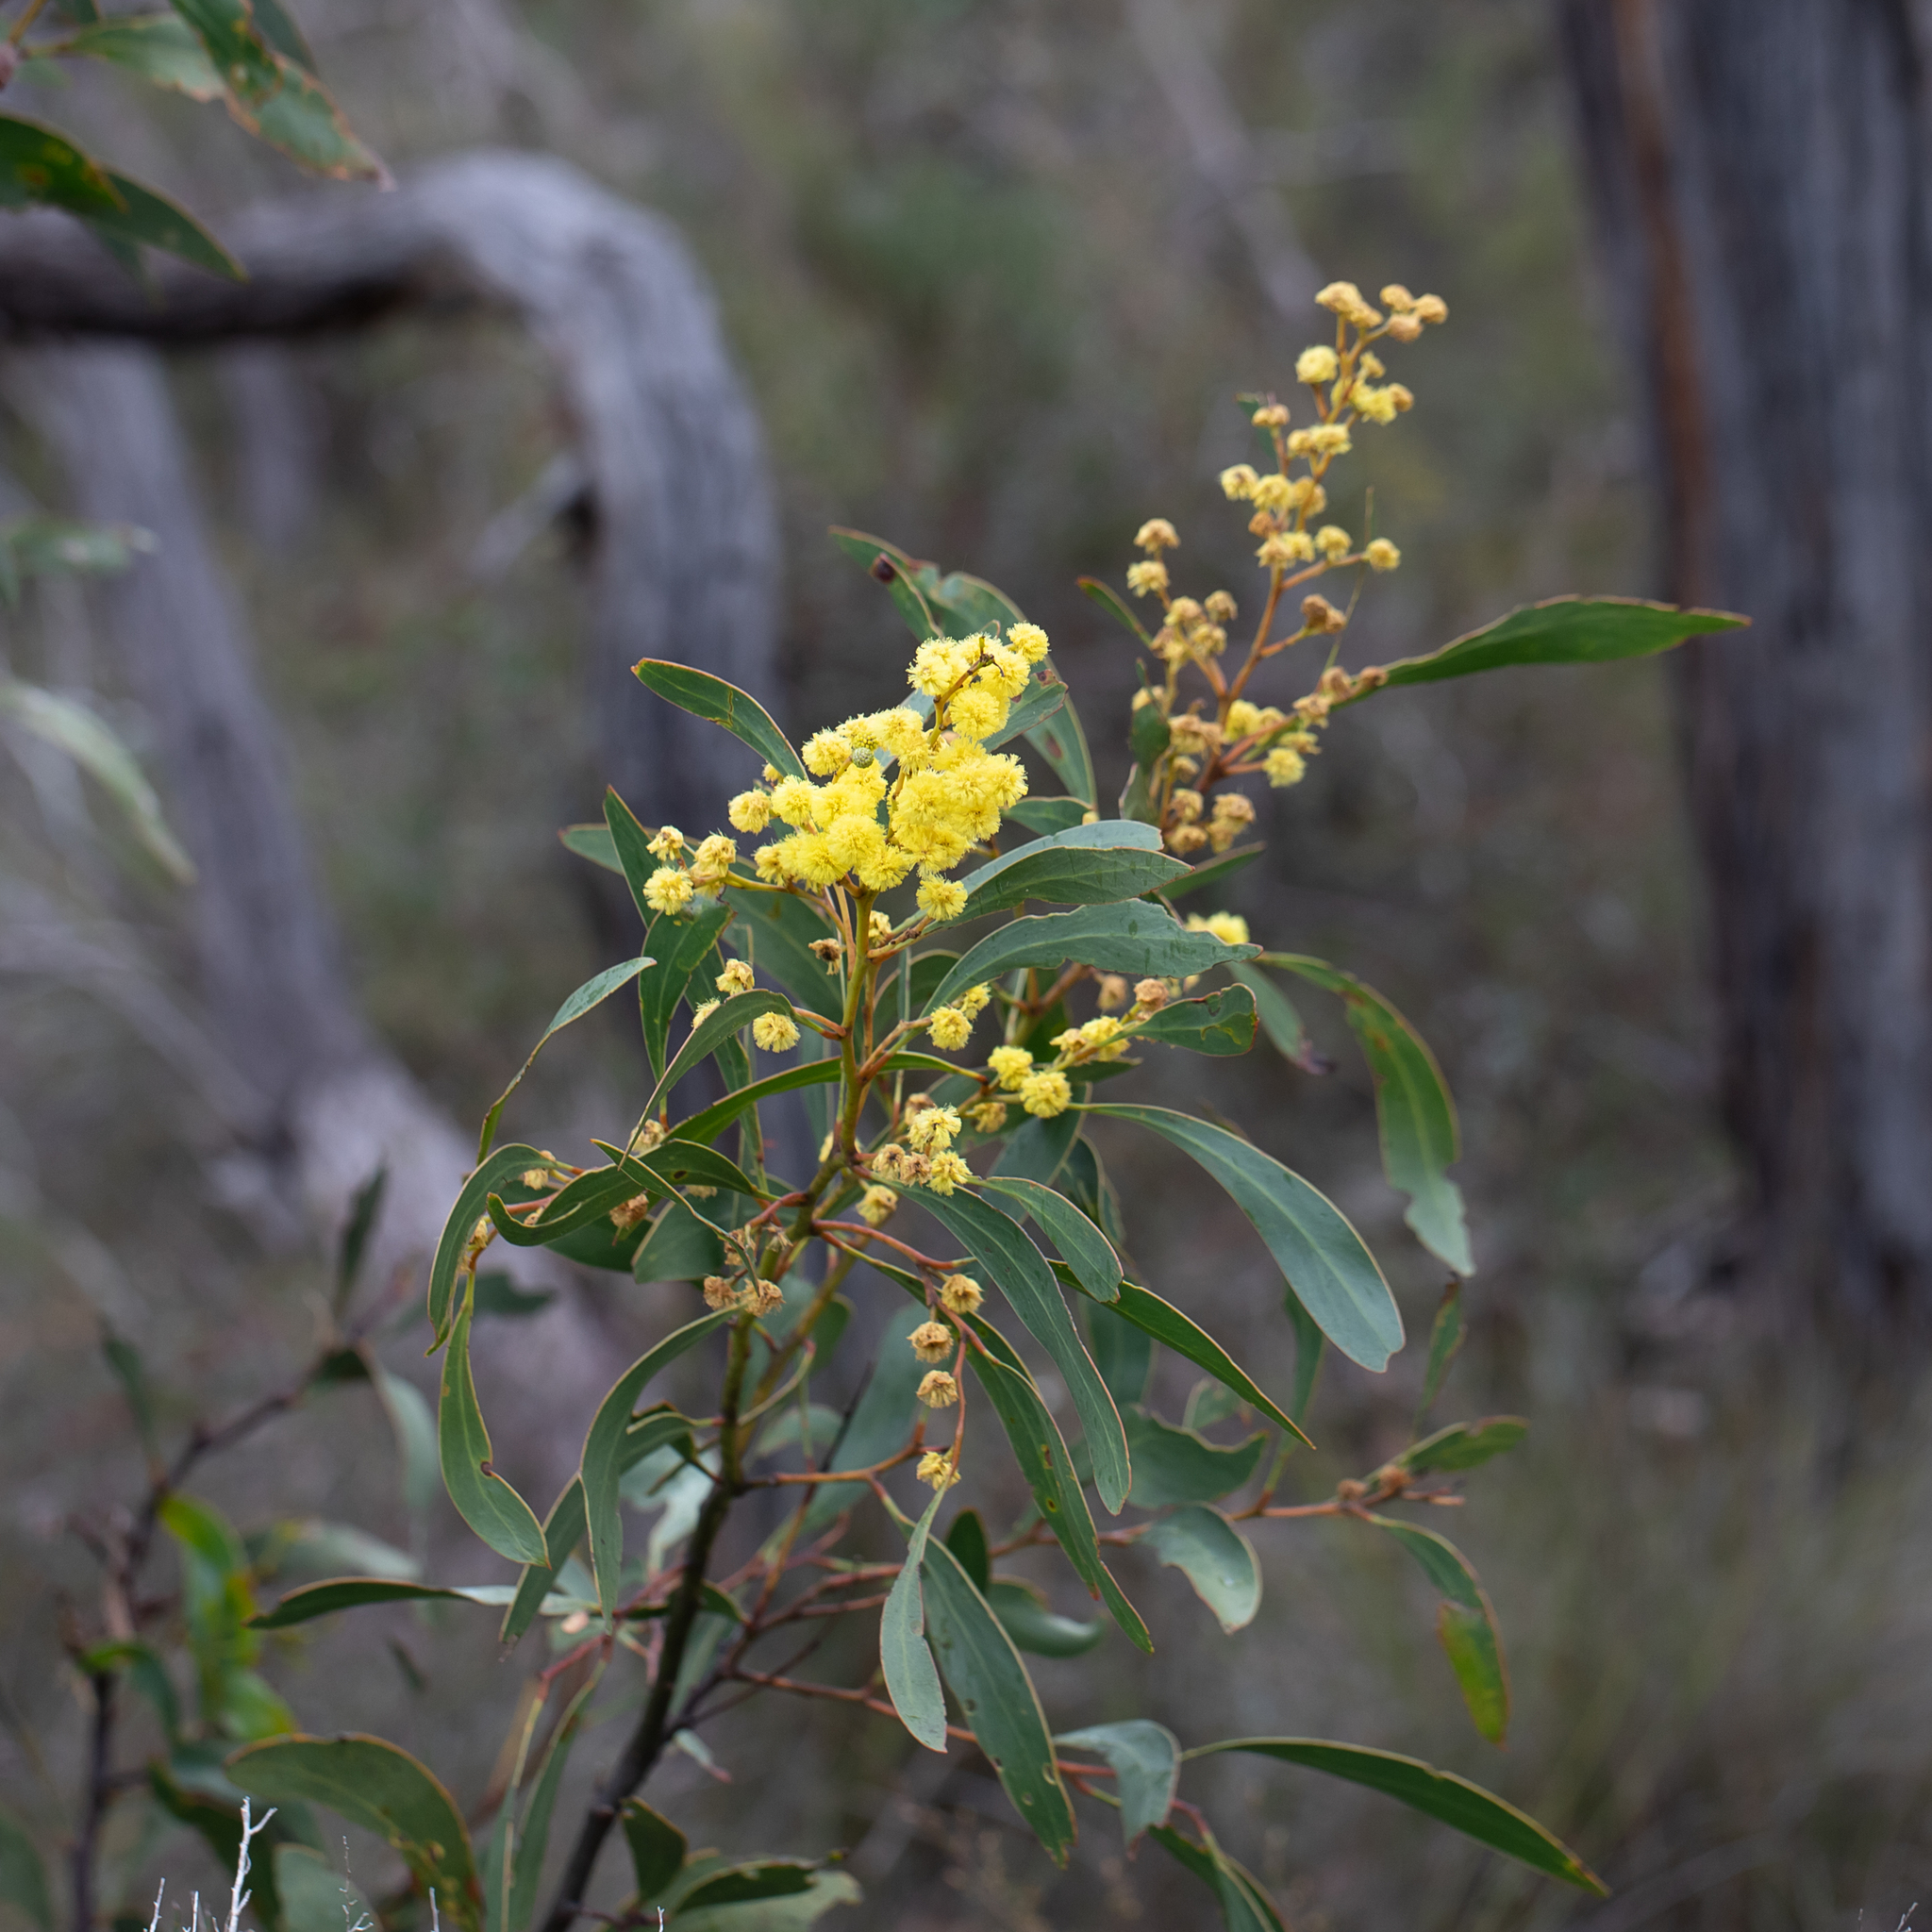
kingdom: Plantae
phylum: Tracheophyta
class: Magnoliopsida
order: Fabales
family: Fabaceae
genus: Acacia
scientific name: Acacia pycnantha
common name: Golden wattle
